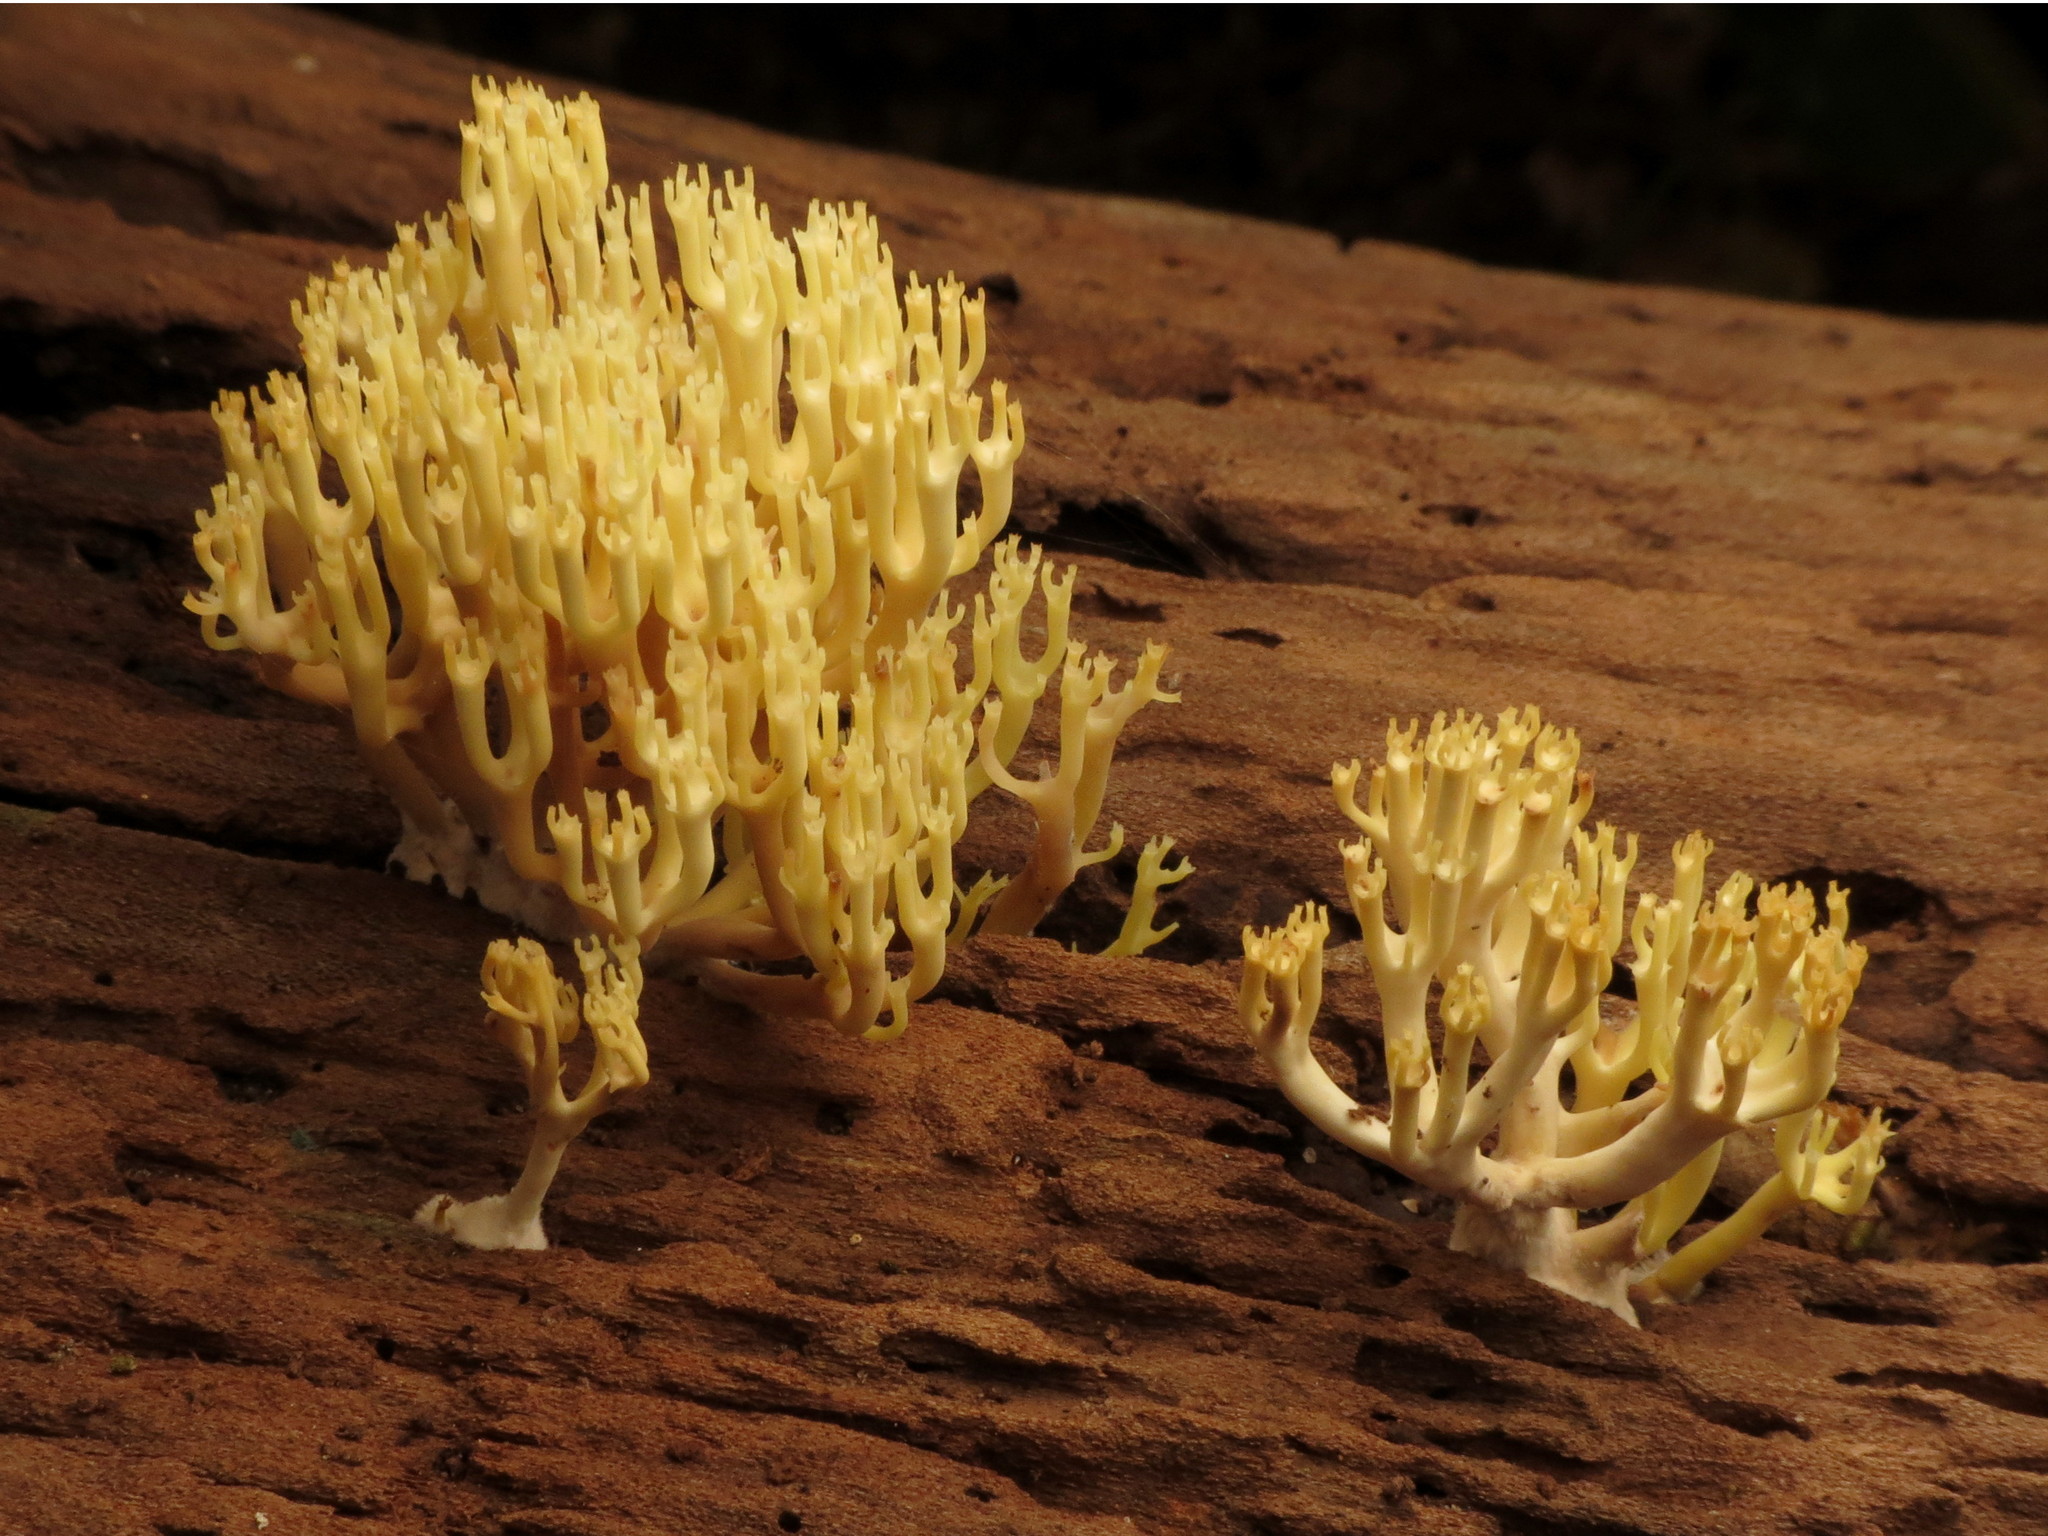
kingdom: Fungi
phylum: Basidiomycota
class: Agaricomycetes
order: Russulales
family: Auriscalpiaceae
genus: Artomyces
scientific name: Artomyces pyxidatus
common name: Crown-tipped coral fungus
